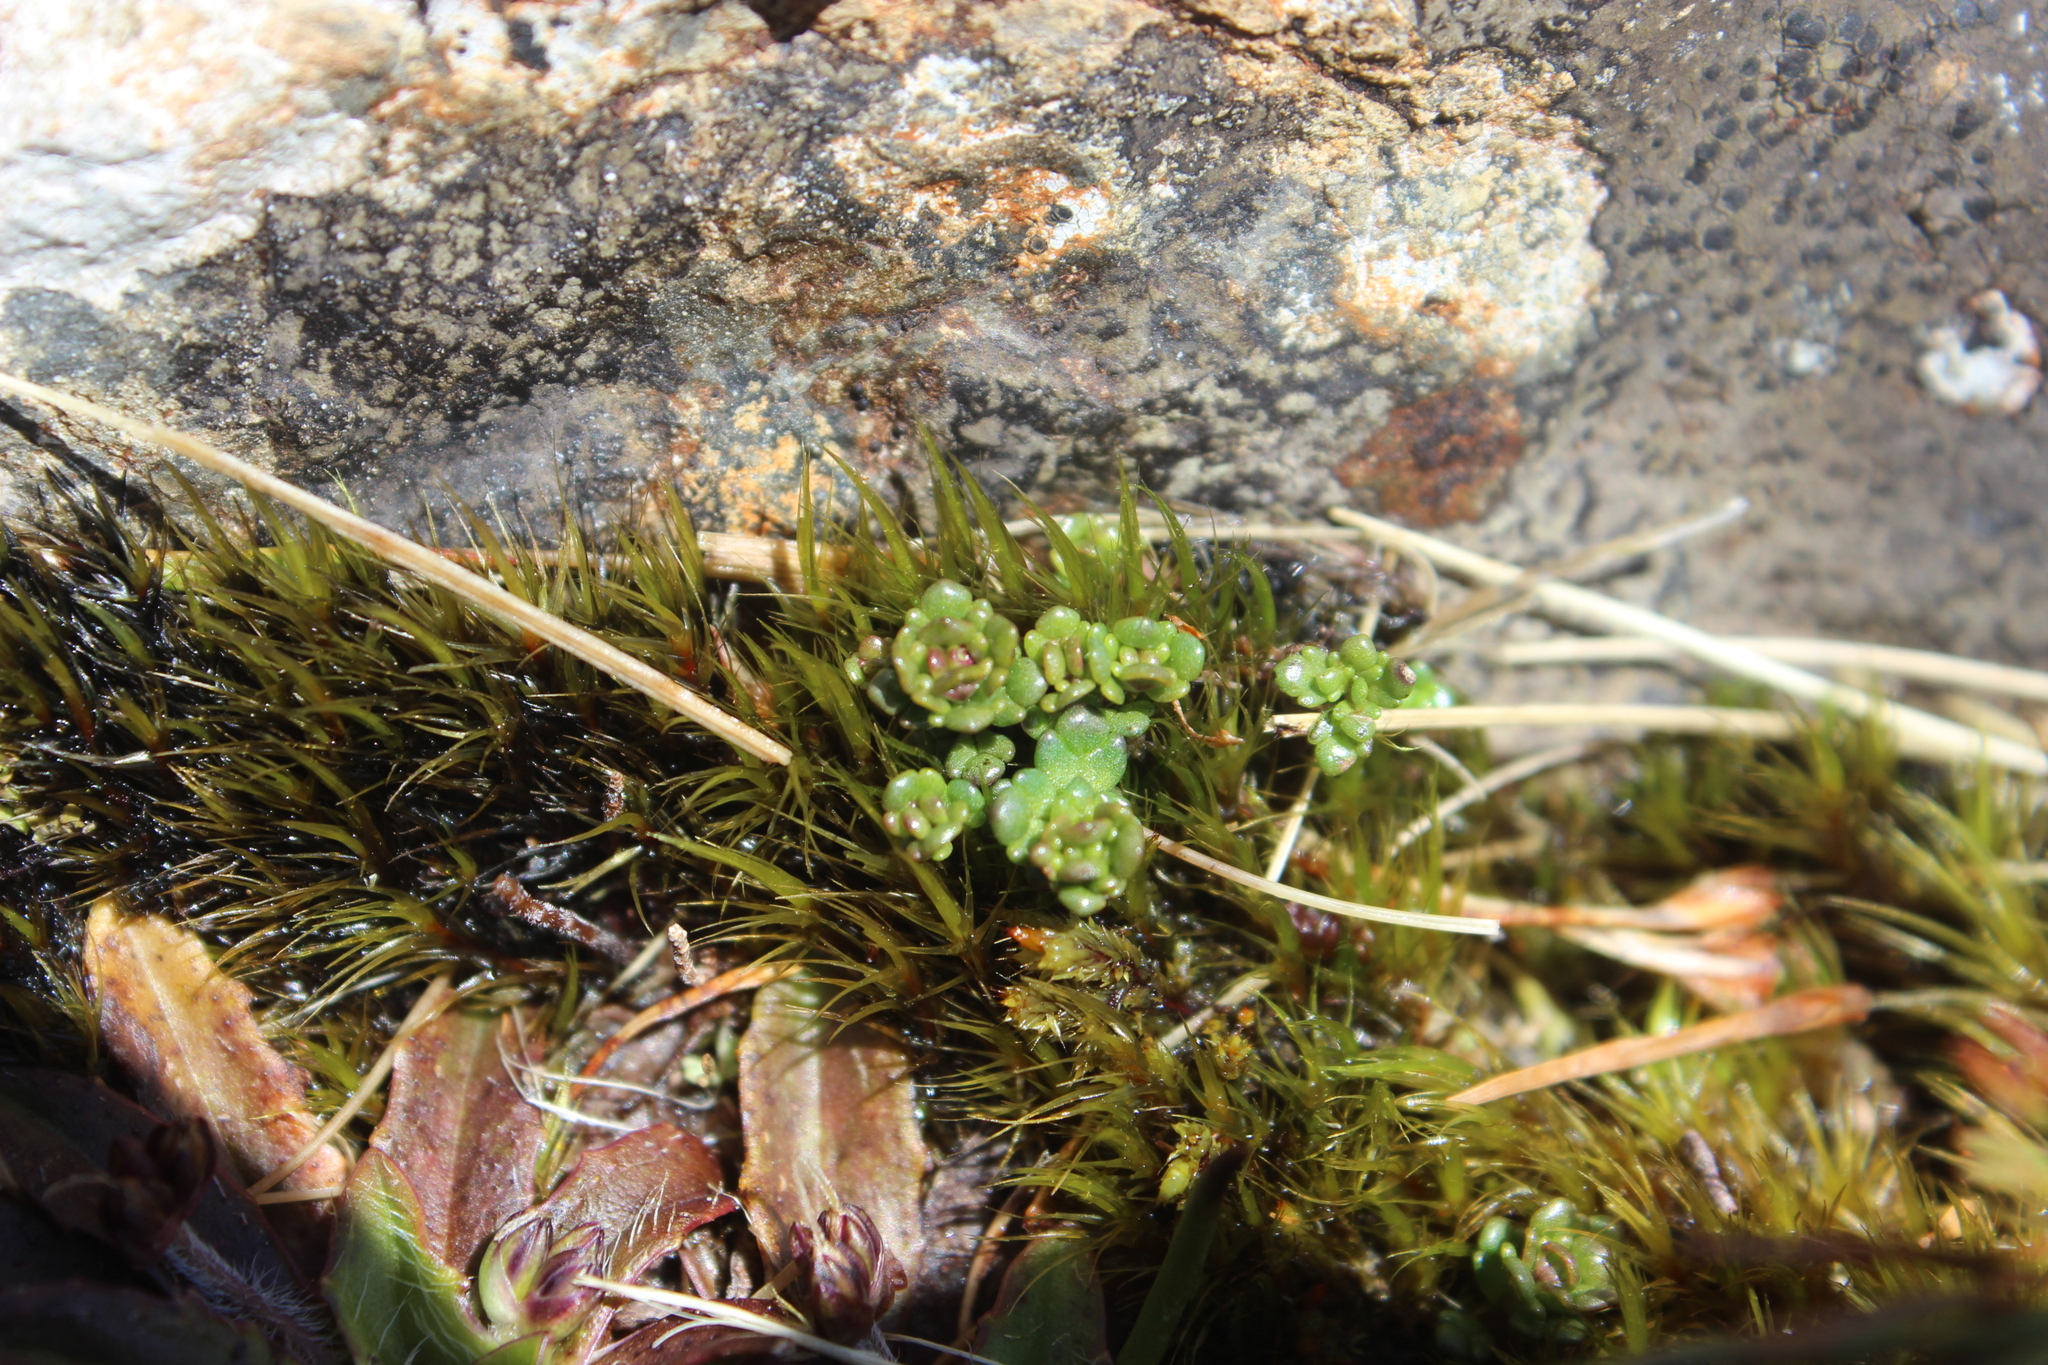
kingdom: Plantae
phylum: Tracheophyta
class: Magnoliopsida
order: Lamiales
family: Orobanchaceae
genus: Euphrasia
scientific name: Euphrasia revoluta
